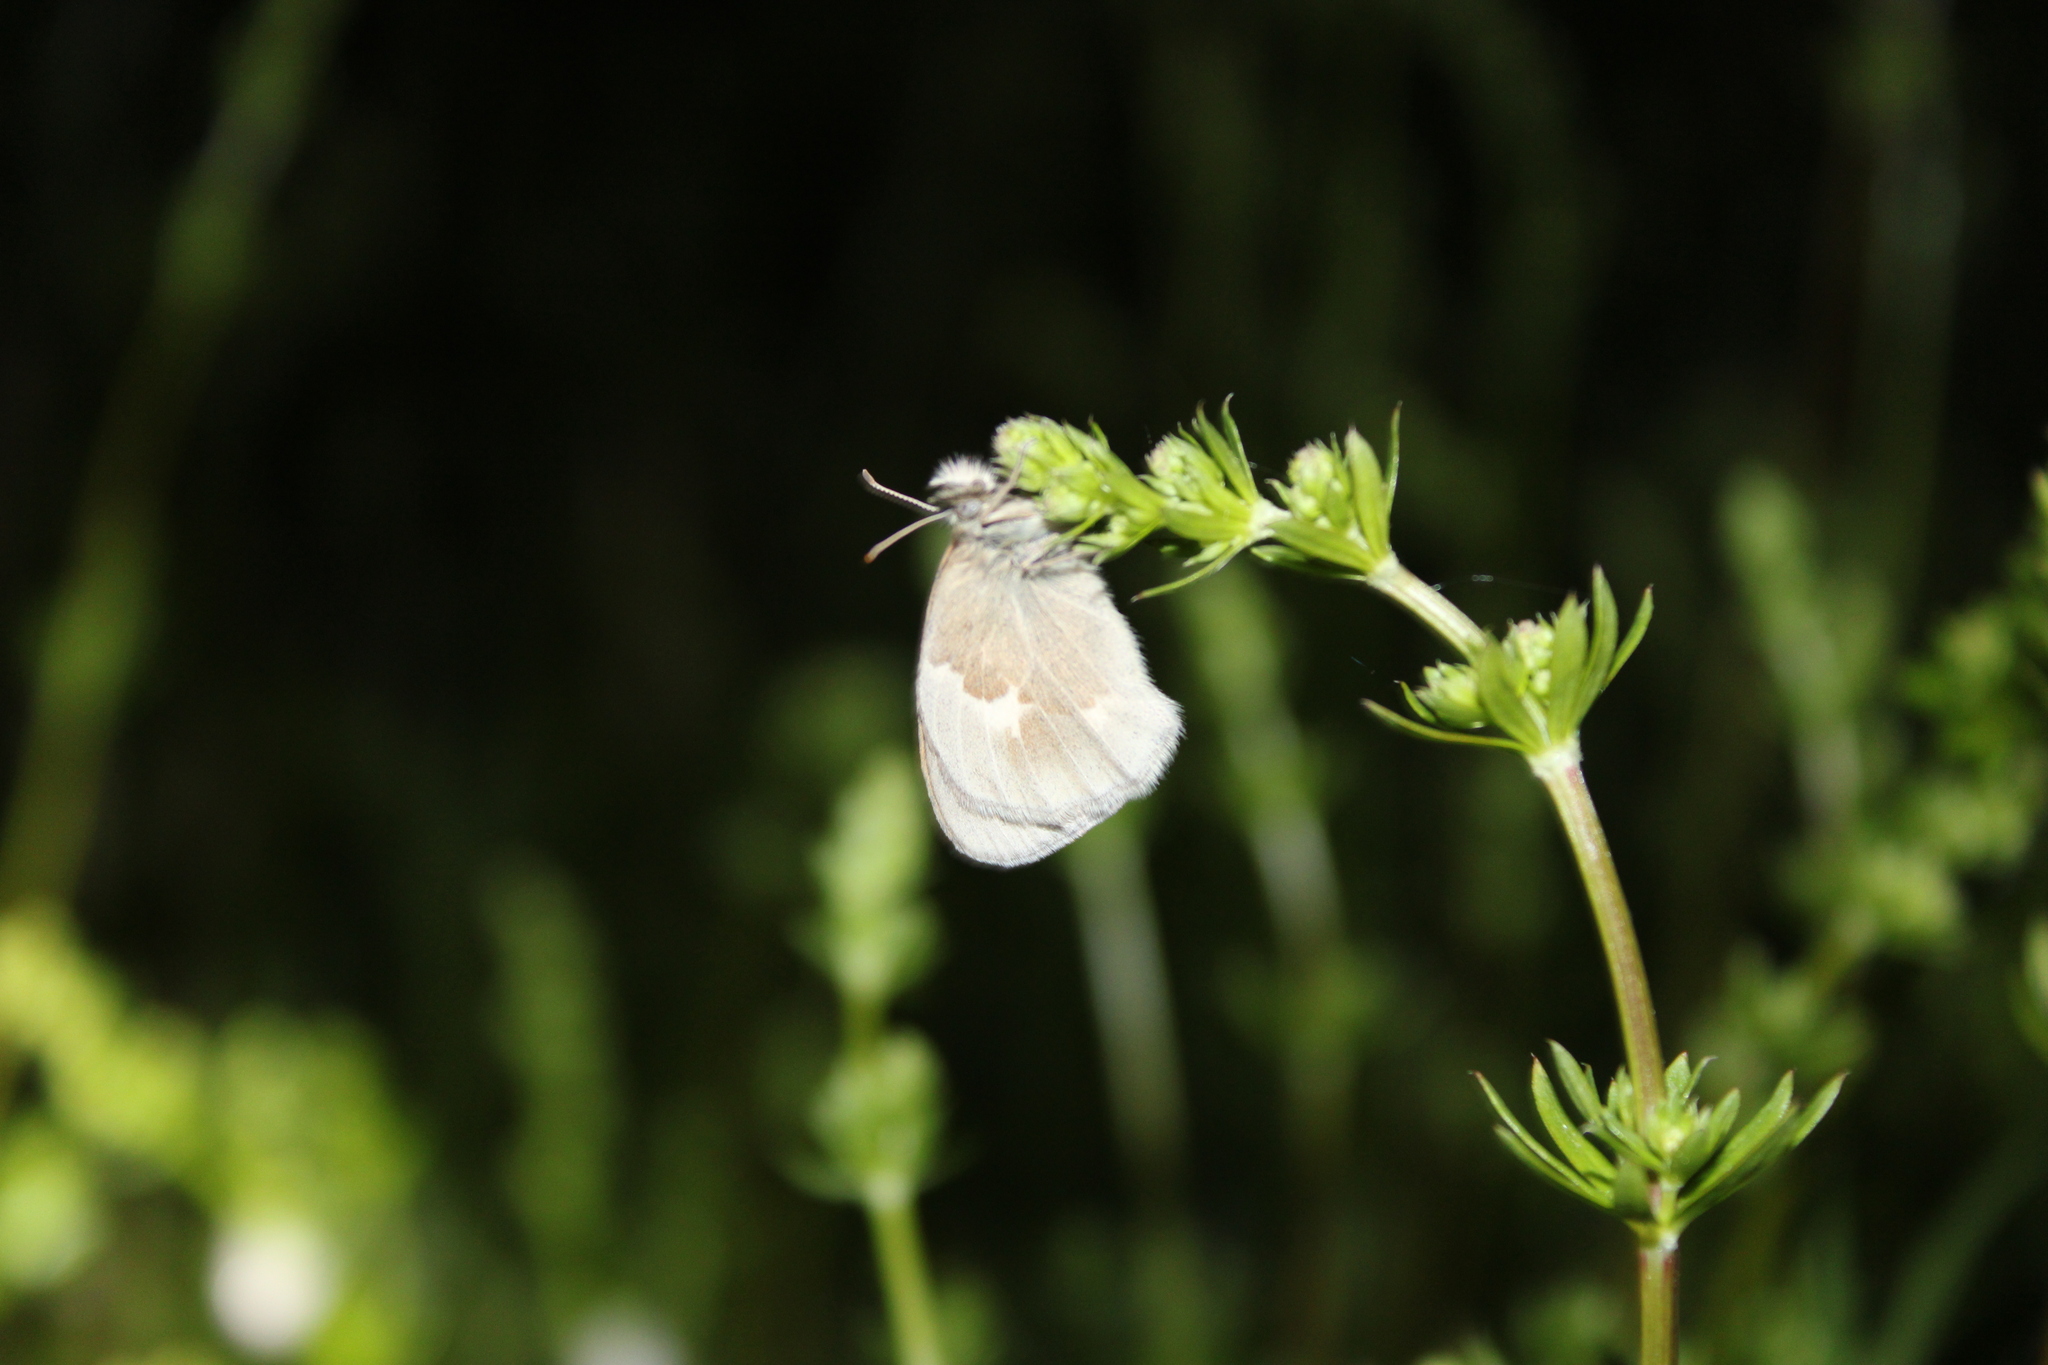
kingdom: Animalia
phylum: Arthropoda
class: Insecta
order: Lepidoptera
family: Nymphalidae
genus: Coenonympha
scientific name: Coenonympha california
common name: Common ringlet
